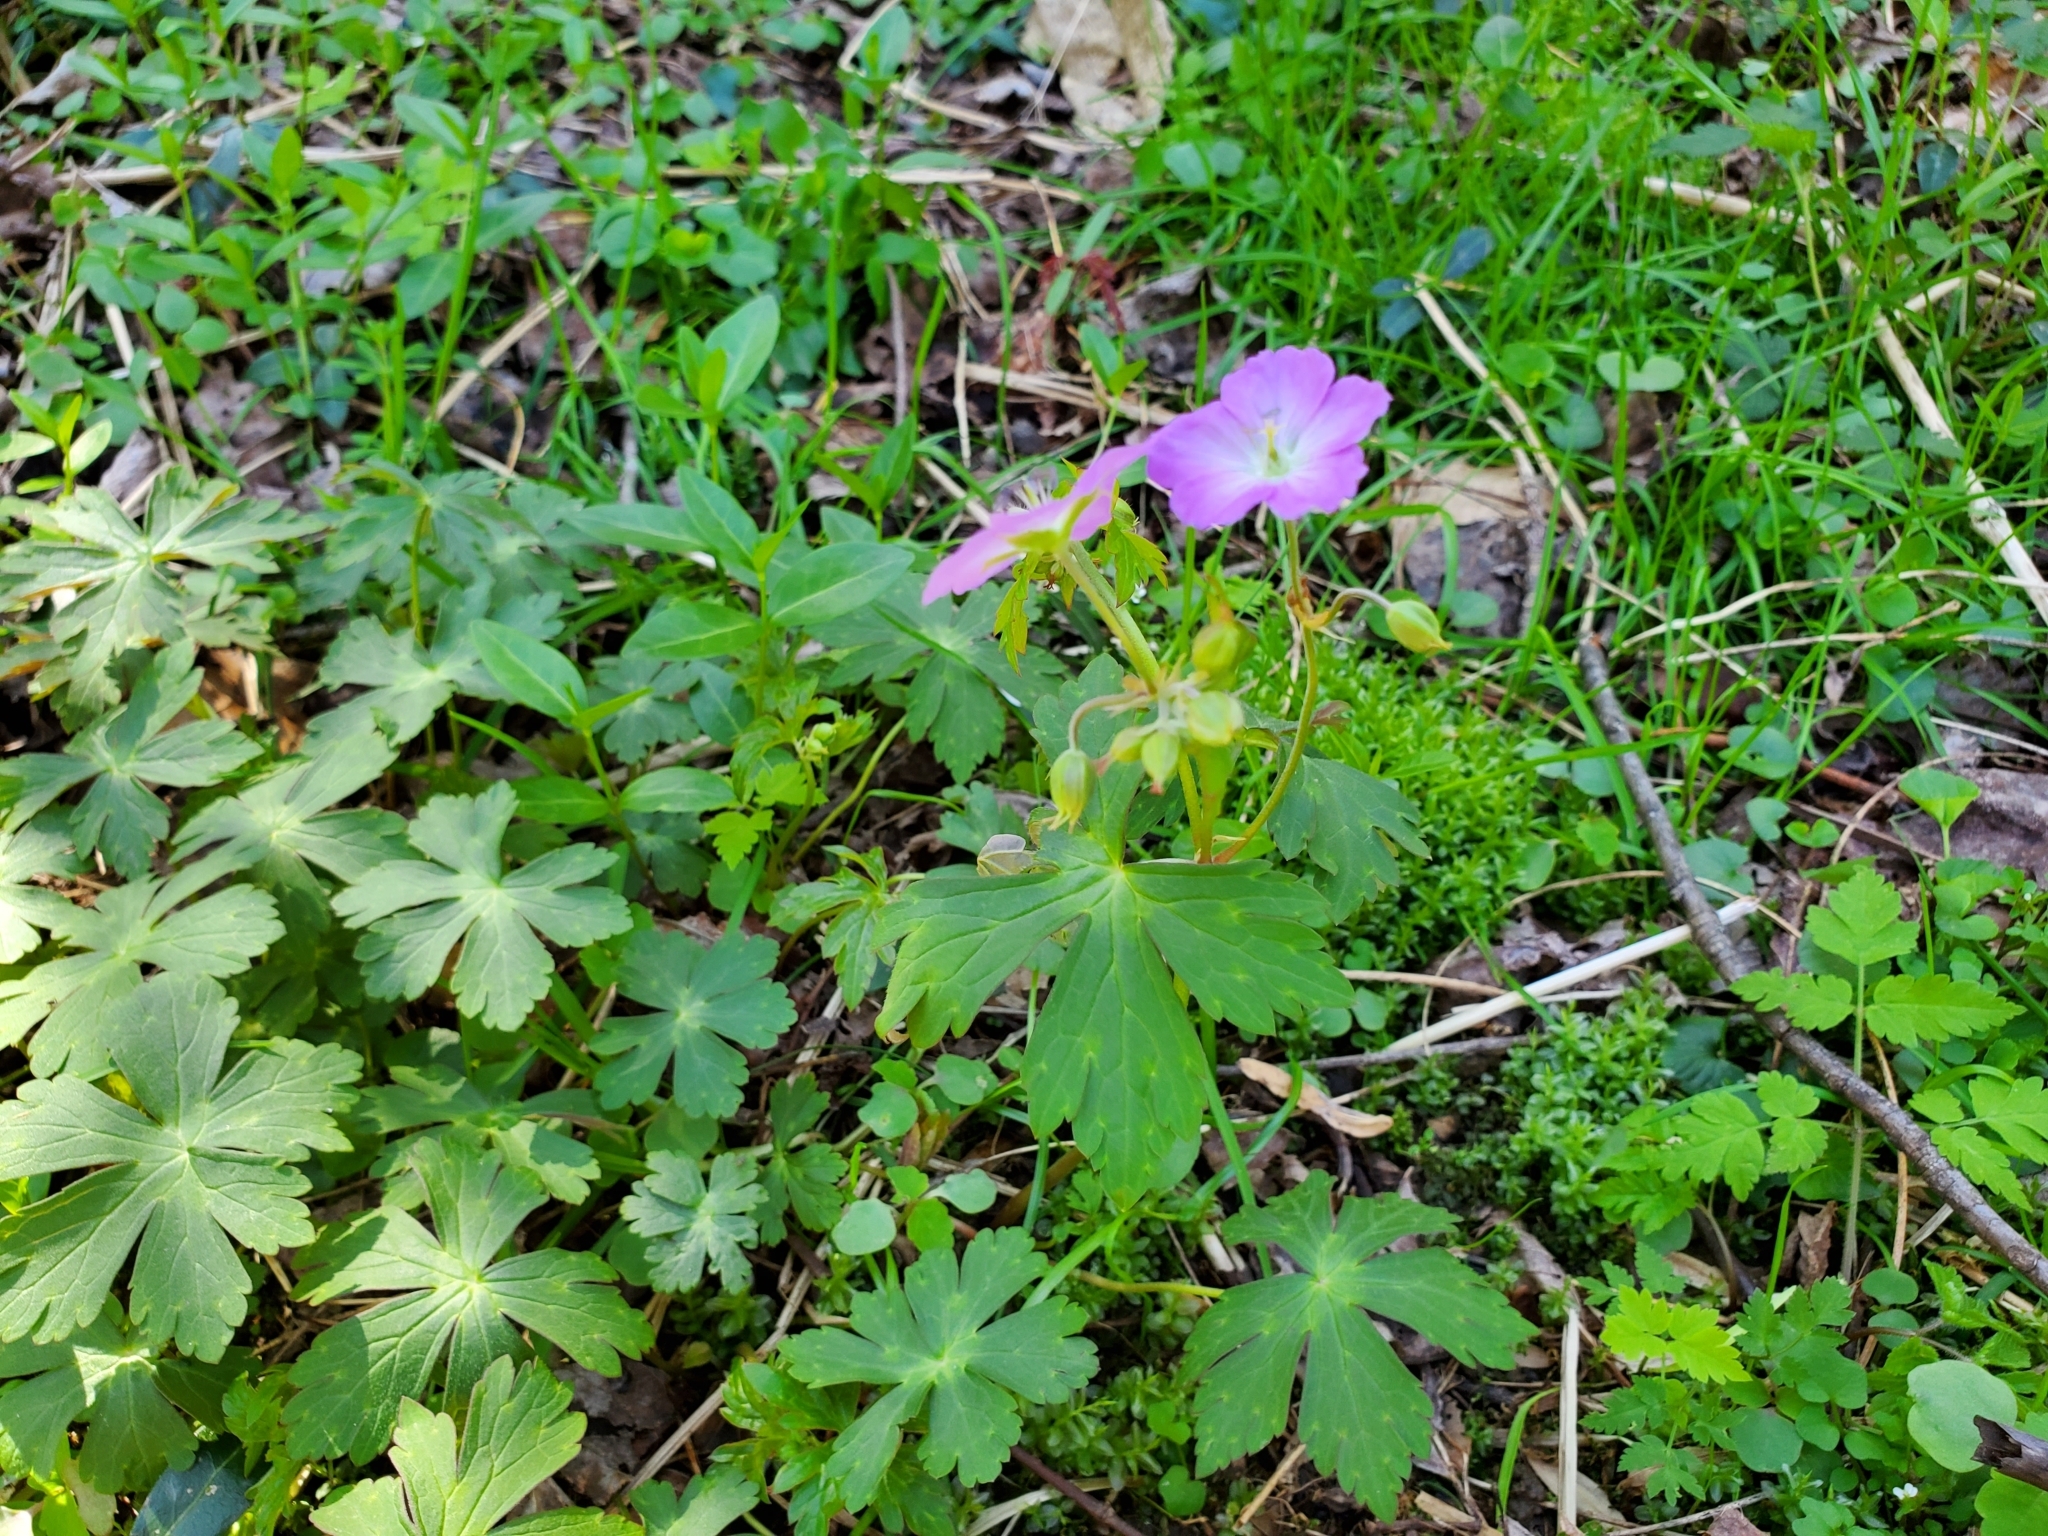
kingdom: Plantae
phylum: Tracheophyta
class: Magnoliopsida
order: Geraniales
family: Geraniaceae
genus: Geranium
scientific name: Geranium maculatum
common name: Spotted geranium
